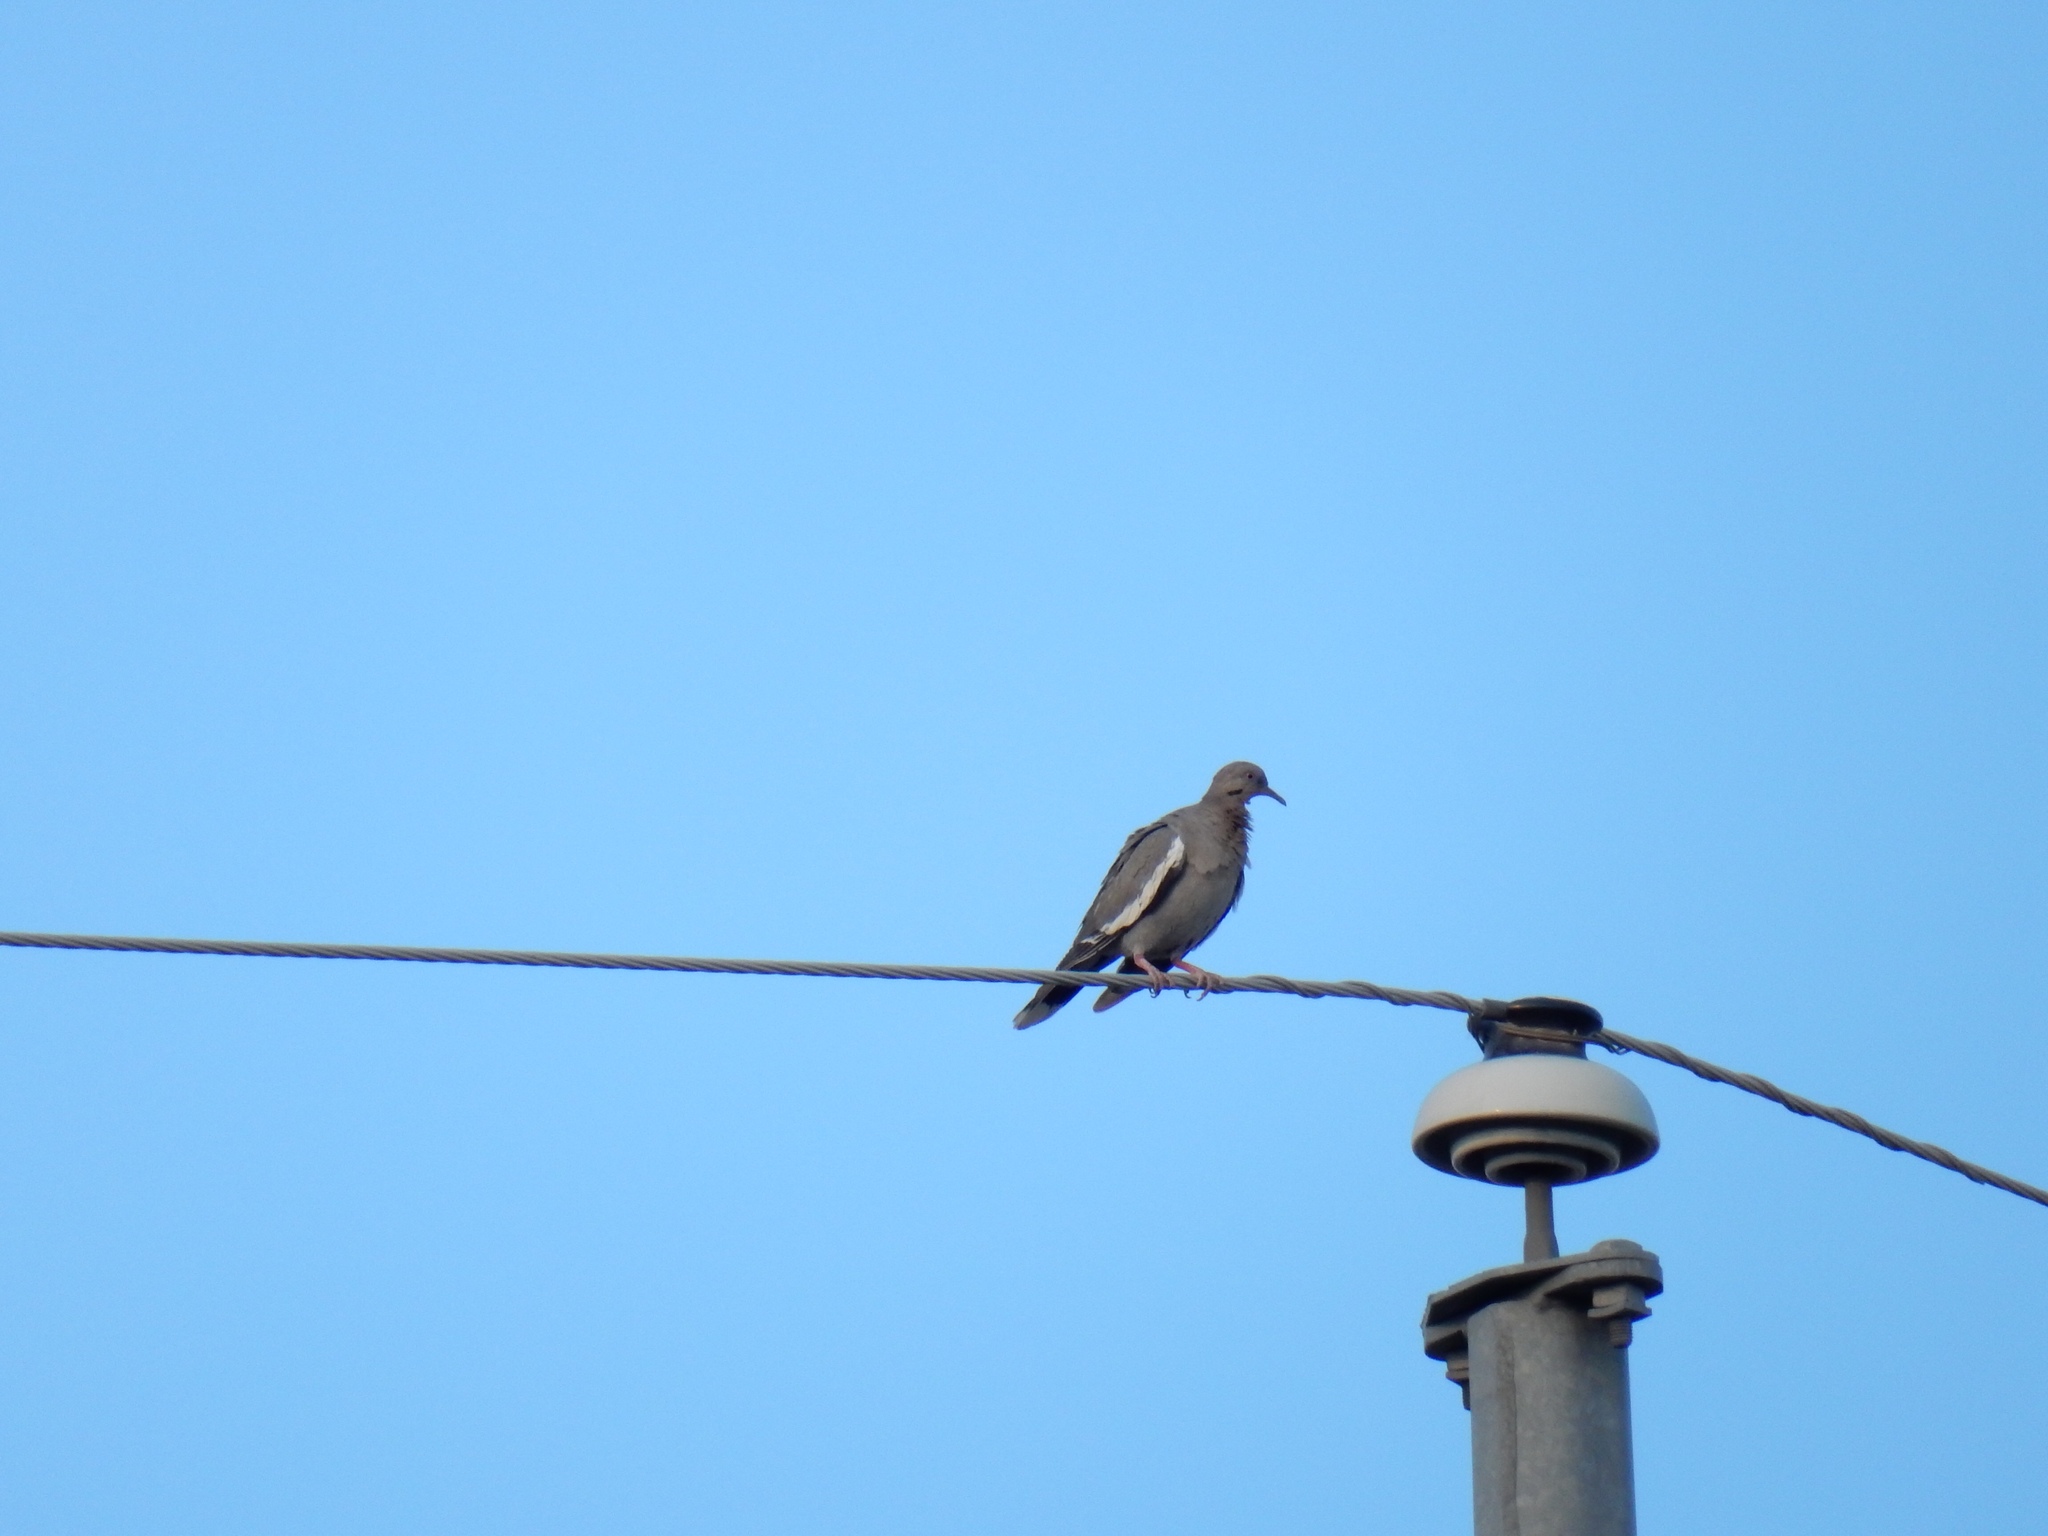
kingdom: Animalia
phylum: Chordata
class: Aves
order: Columbiformes
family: Columbidae
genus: Zenaida
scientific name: Zenaida asiatica
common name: White-winged dove
